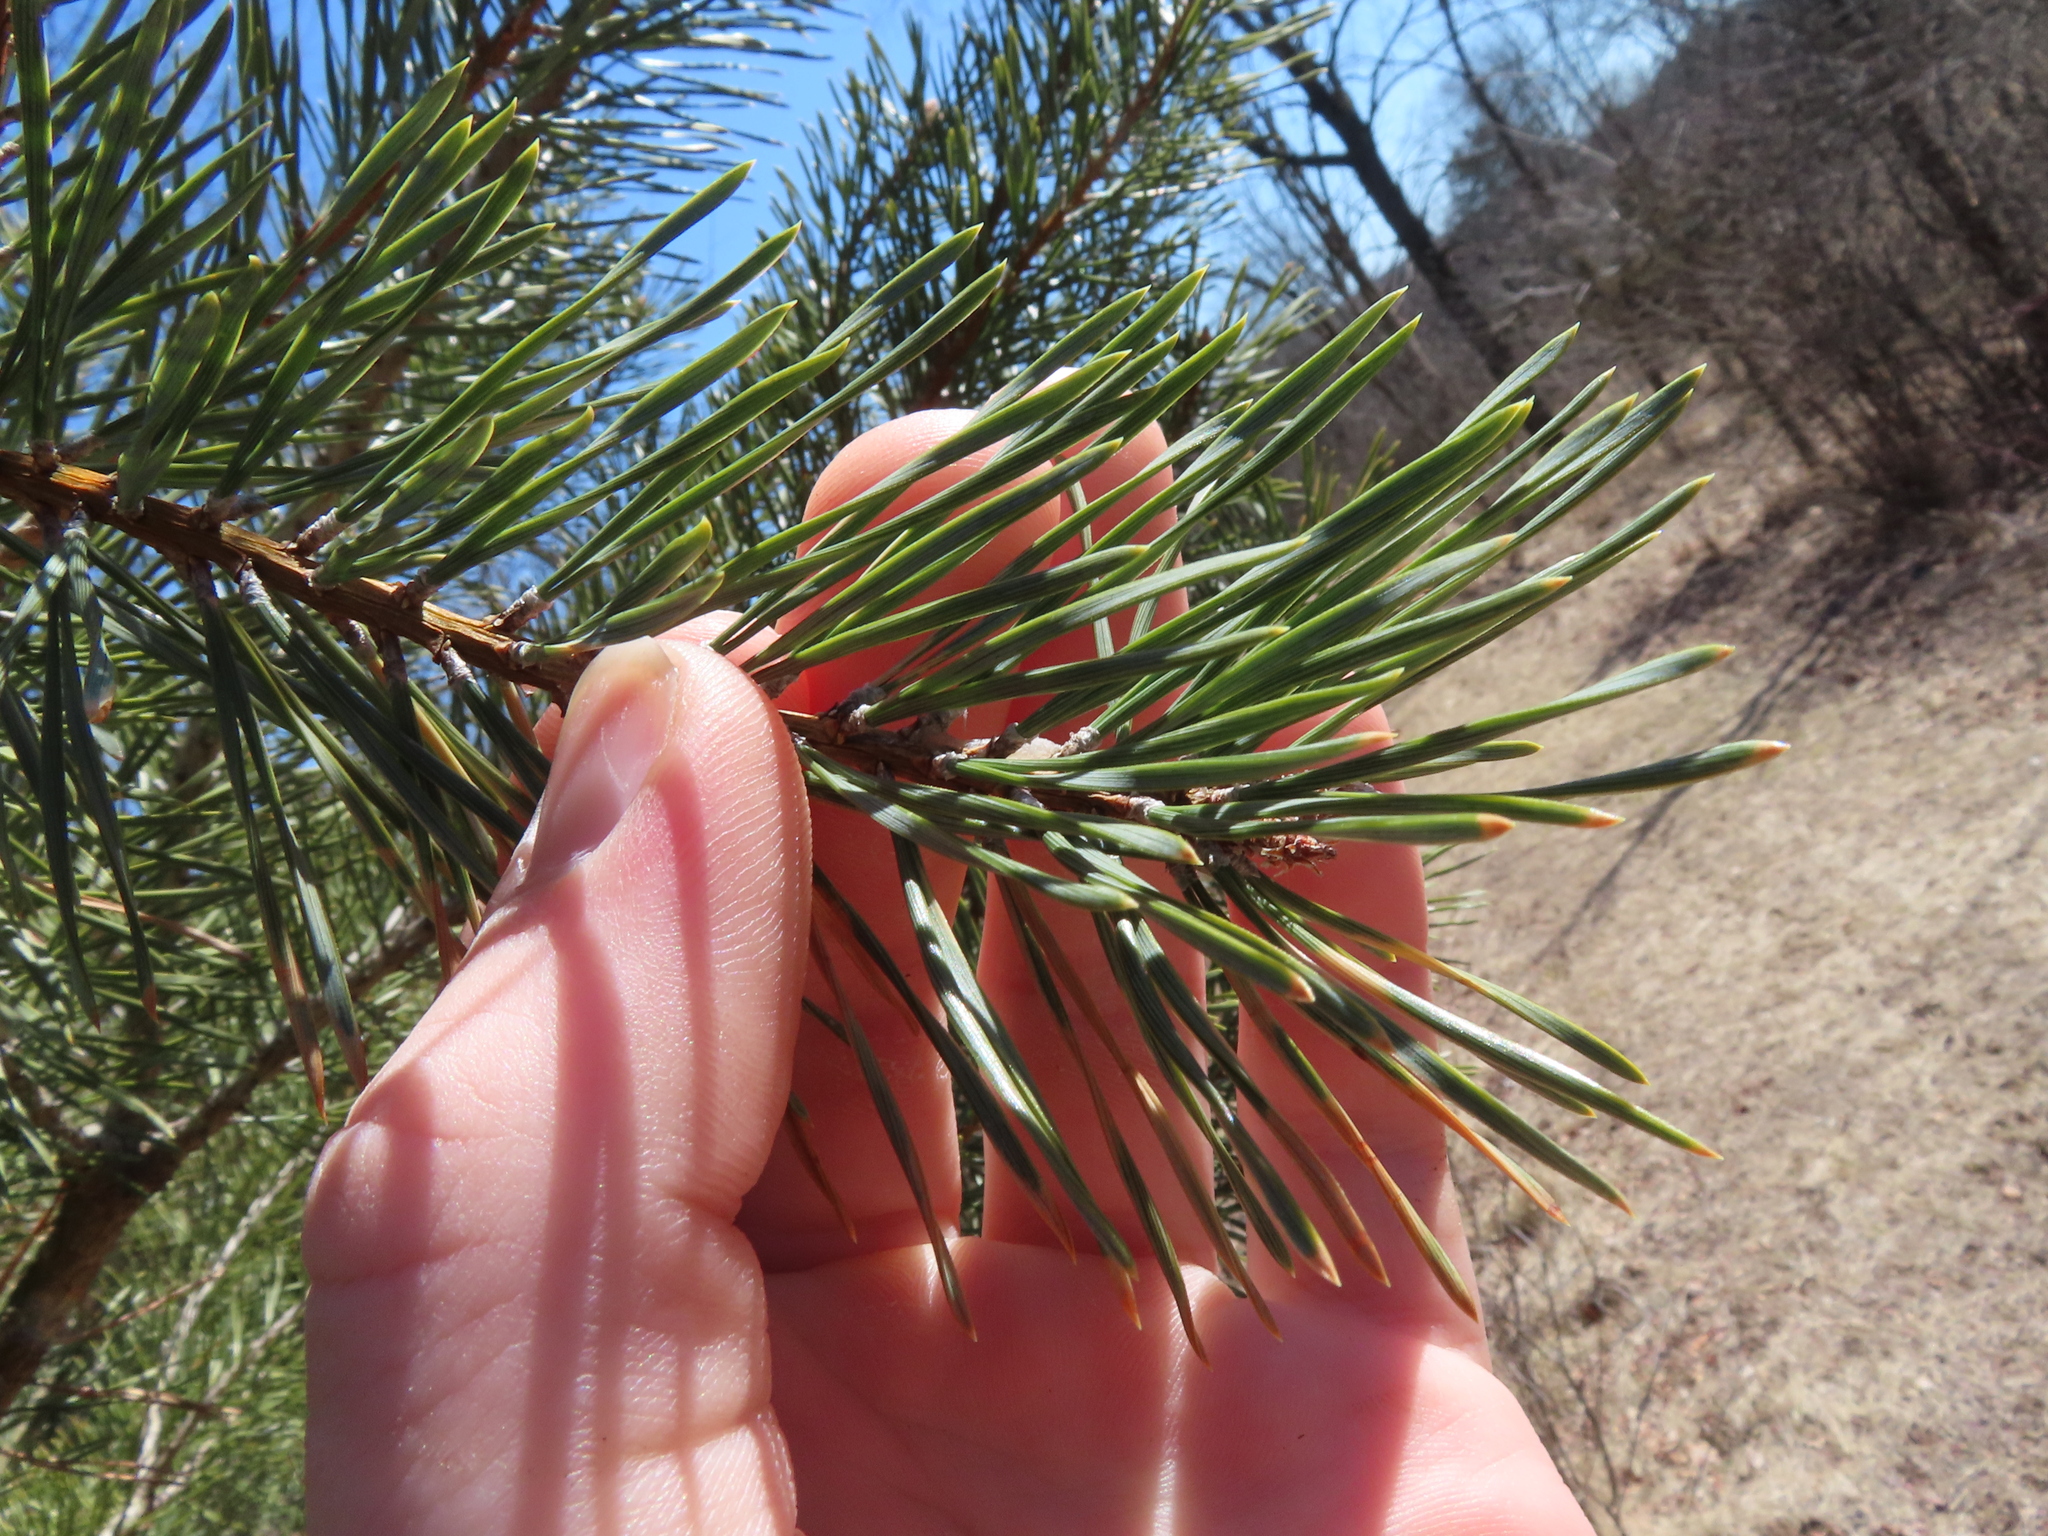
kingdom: Plantae
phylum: Tracheophyta
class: Pinopsida
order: Pinales
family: Pinaceae
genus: Pinus
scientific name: Pinus banksiana
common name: Jack pine
